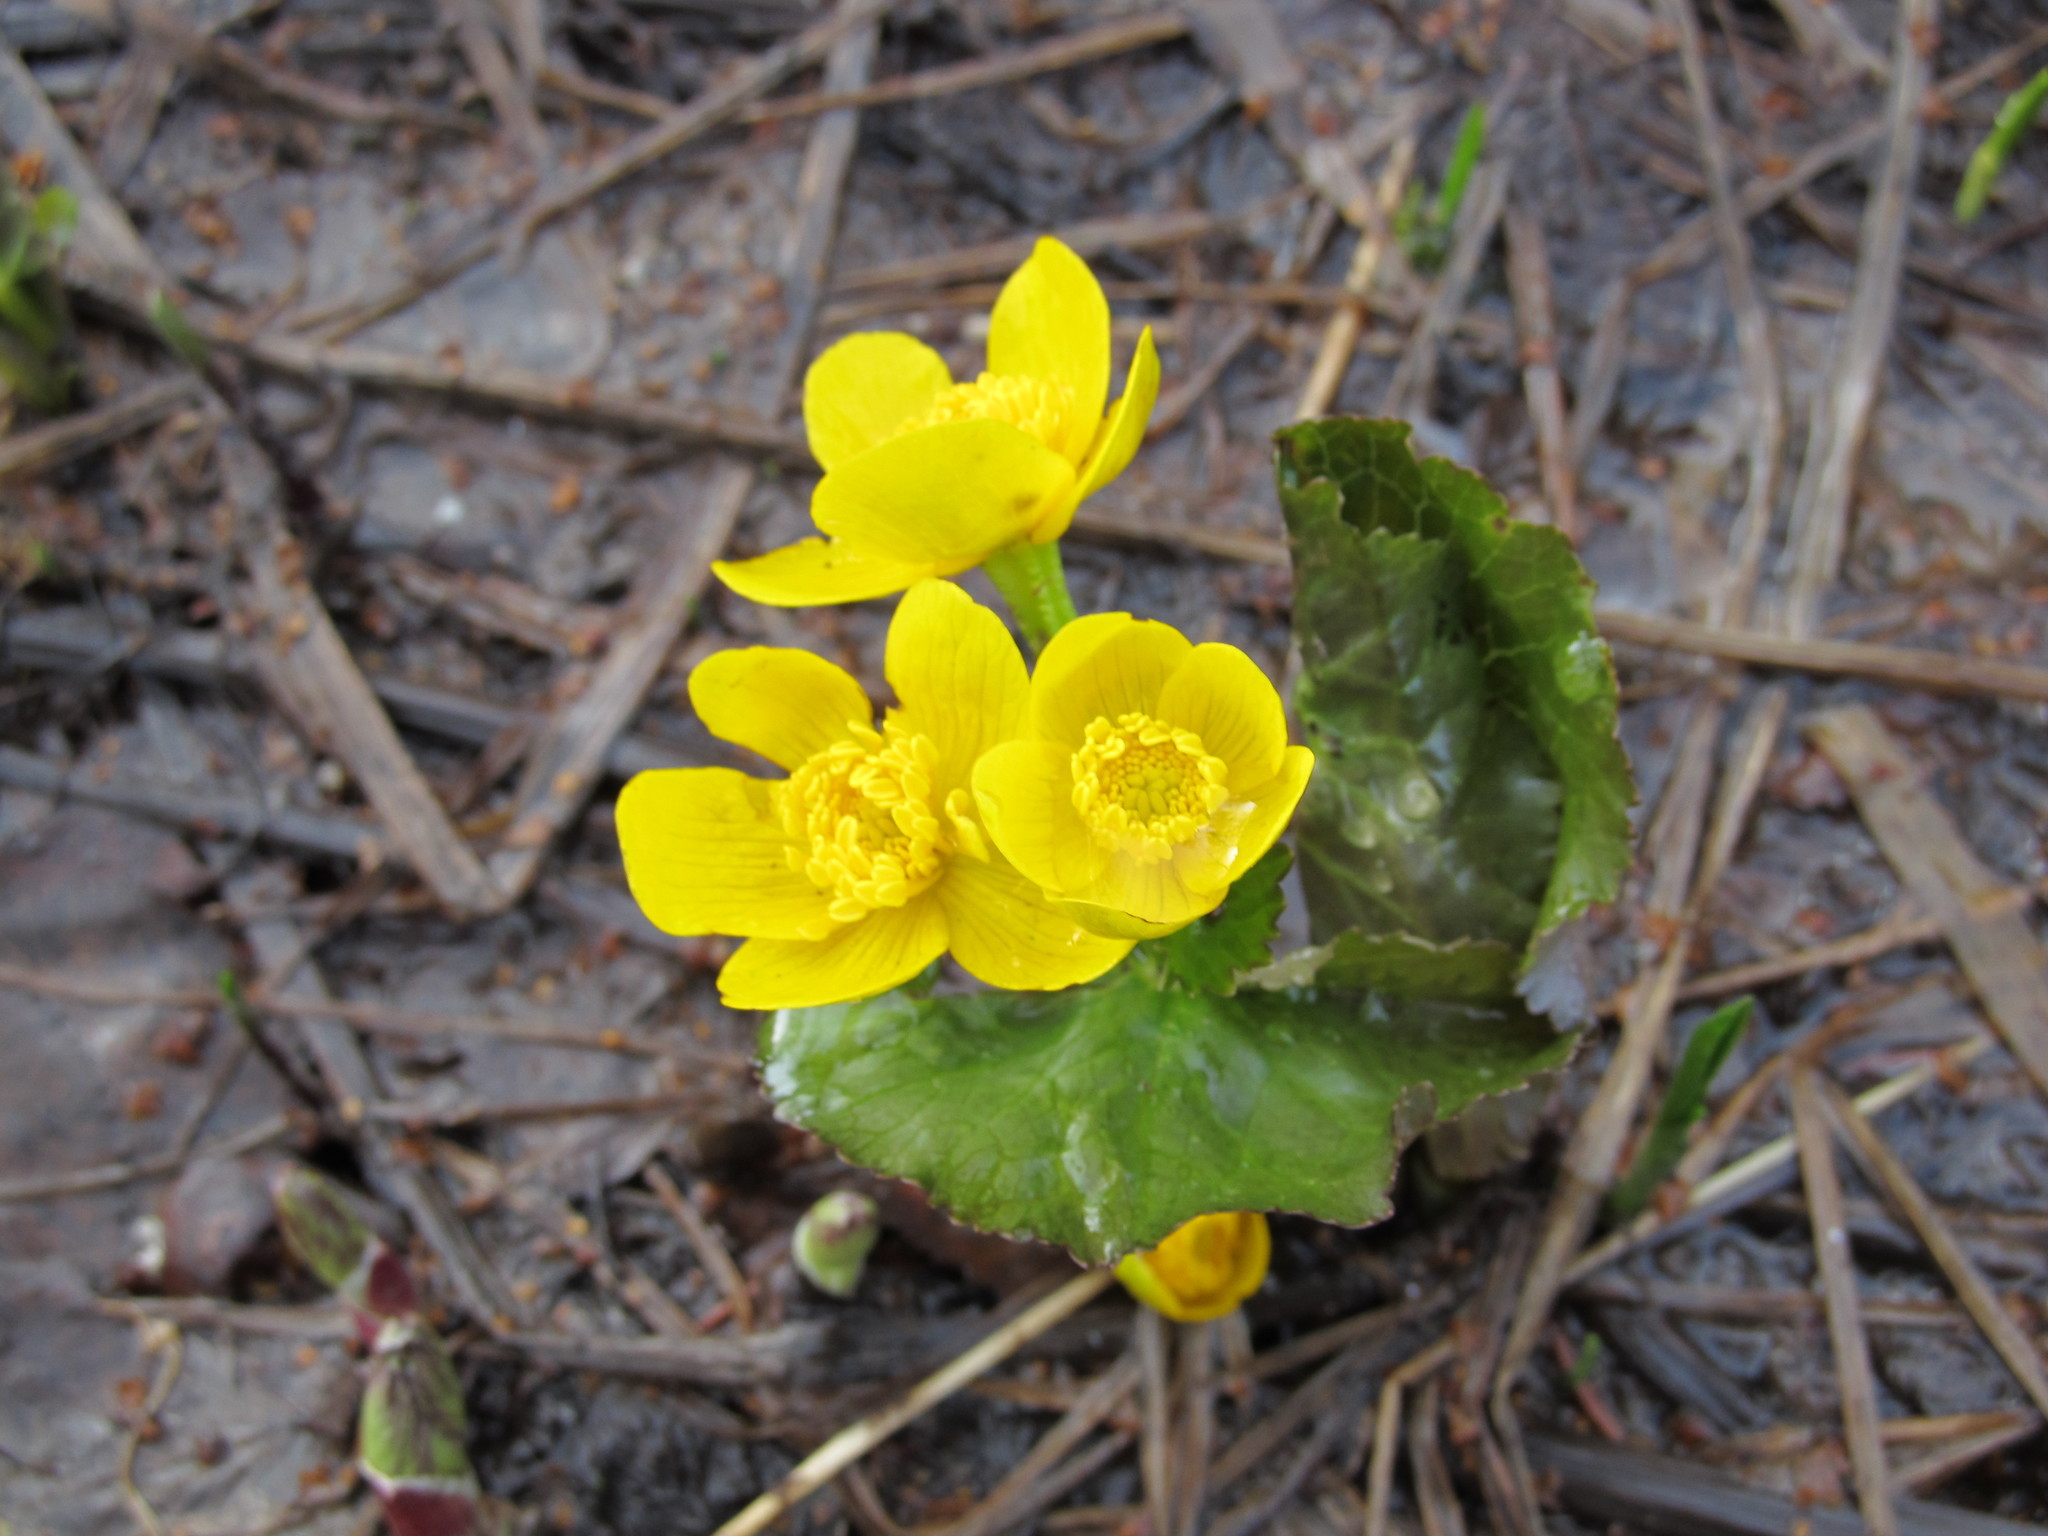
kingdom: Plantae
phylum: Tracheophyta
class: Magnoliopsida
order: Ranunculales
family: Ranunculaceae
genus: Caltha
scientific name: Caltha palustris
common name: Marsh marigold
